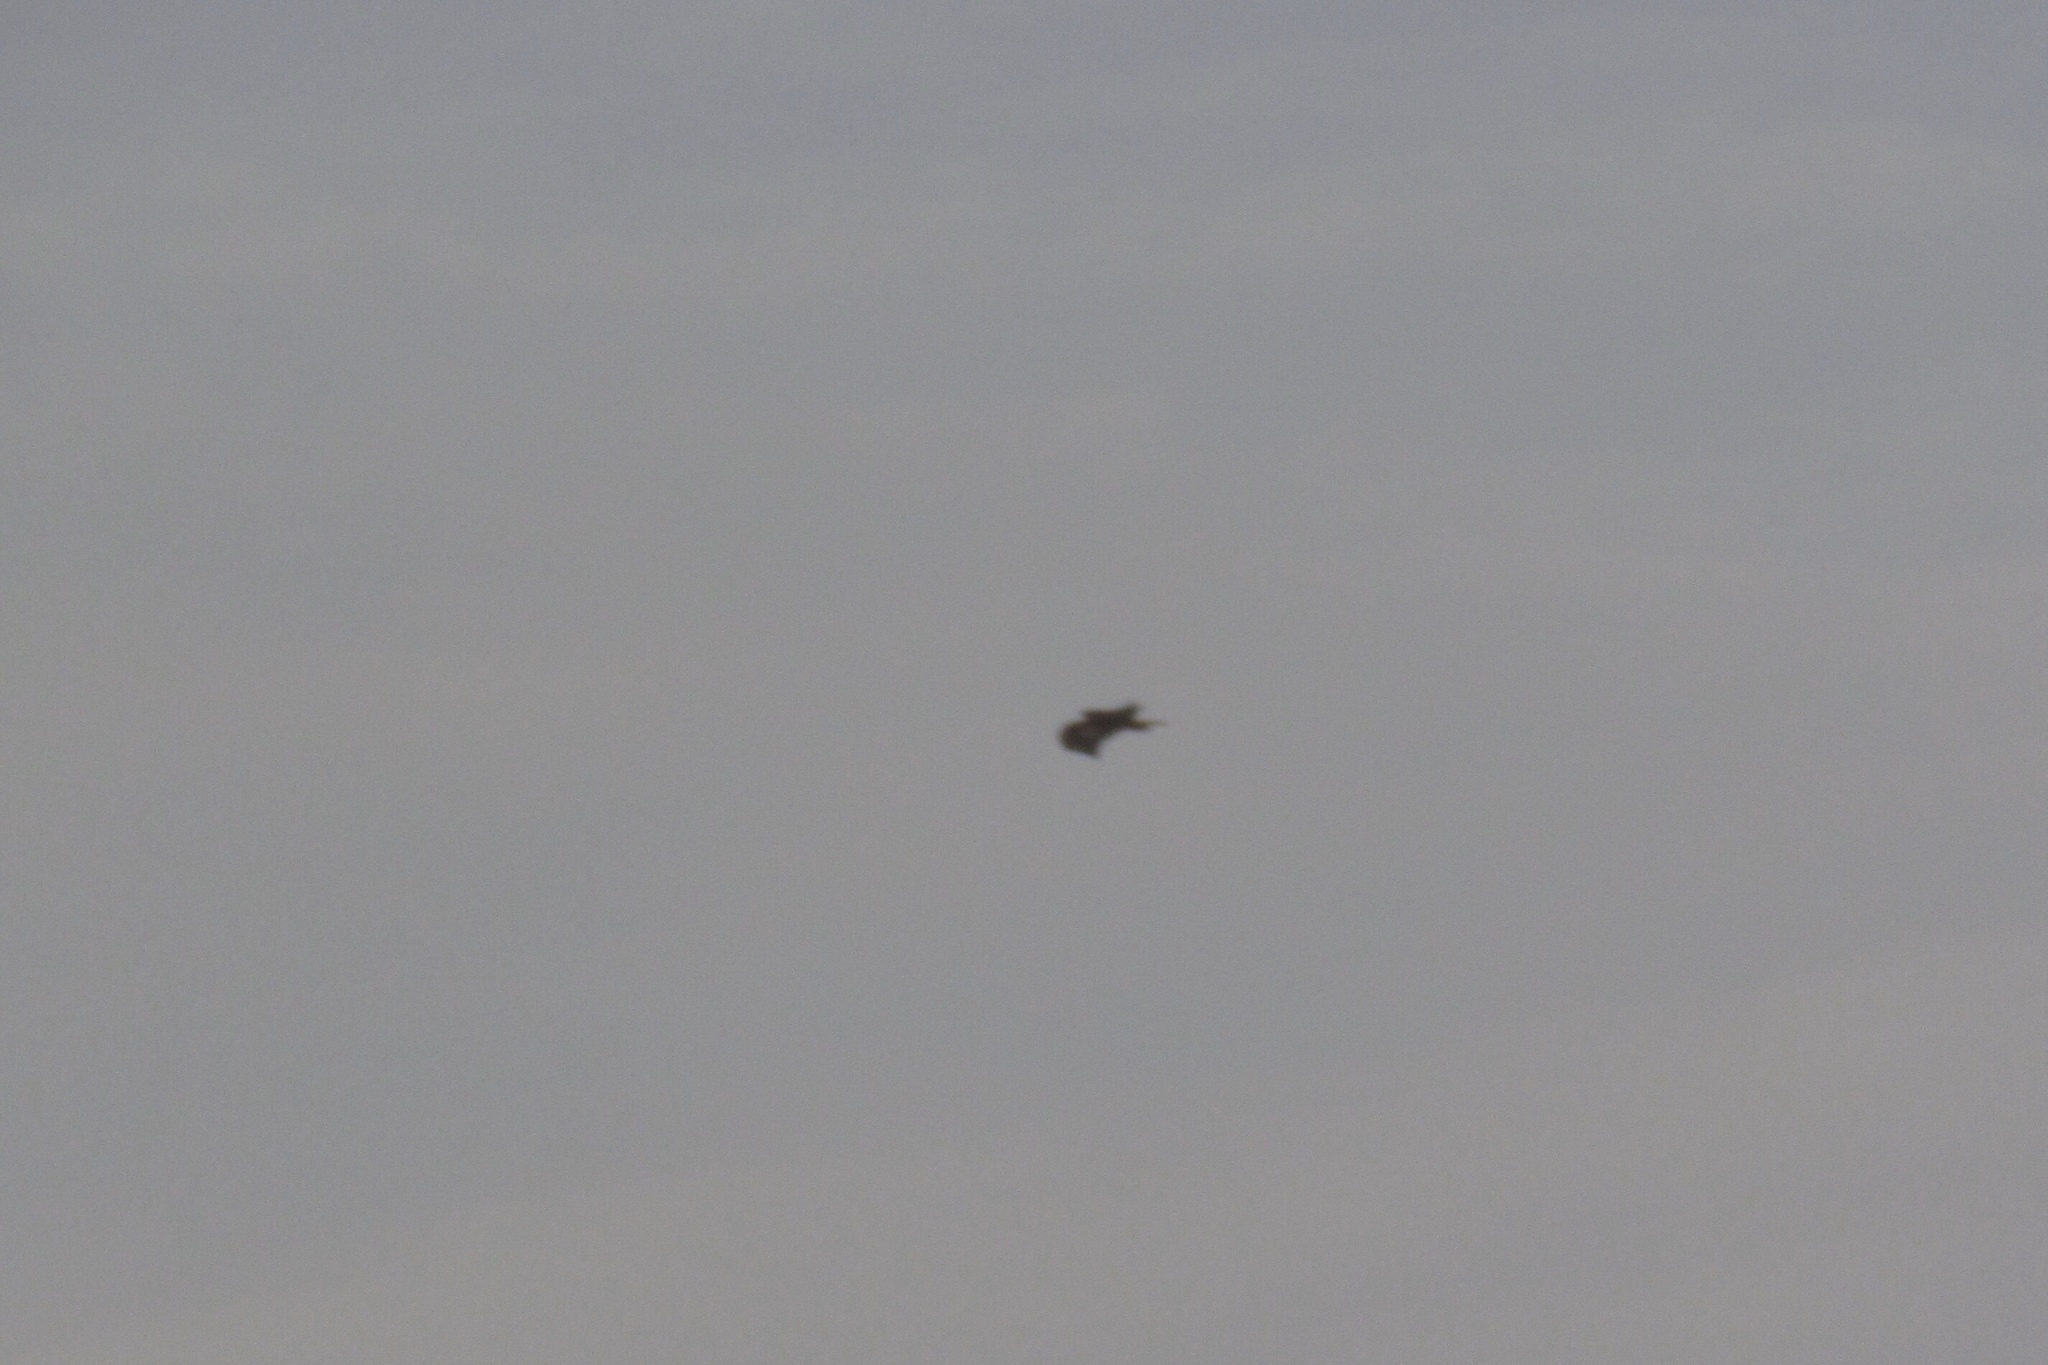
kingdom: Animalia
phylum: Chordata
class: Aves
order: Accipitriformes
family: Accipitridae
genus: Buteo
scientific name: Buteo jamaicensis
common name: Red-tailed hawk
